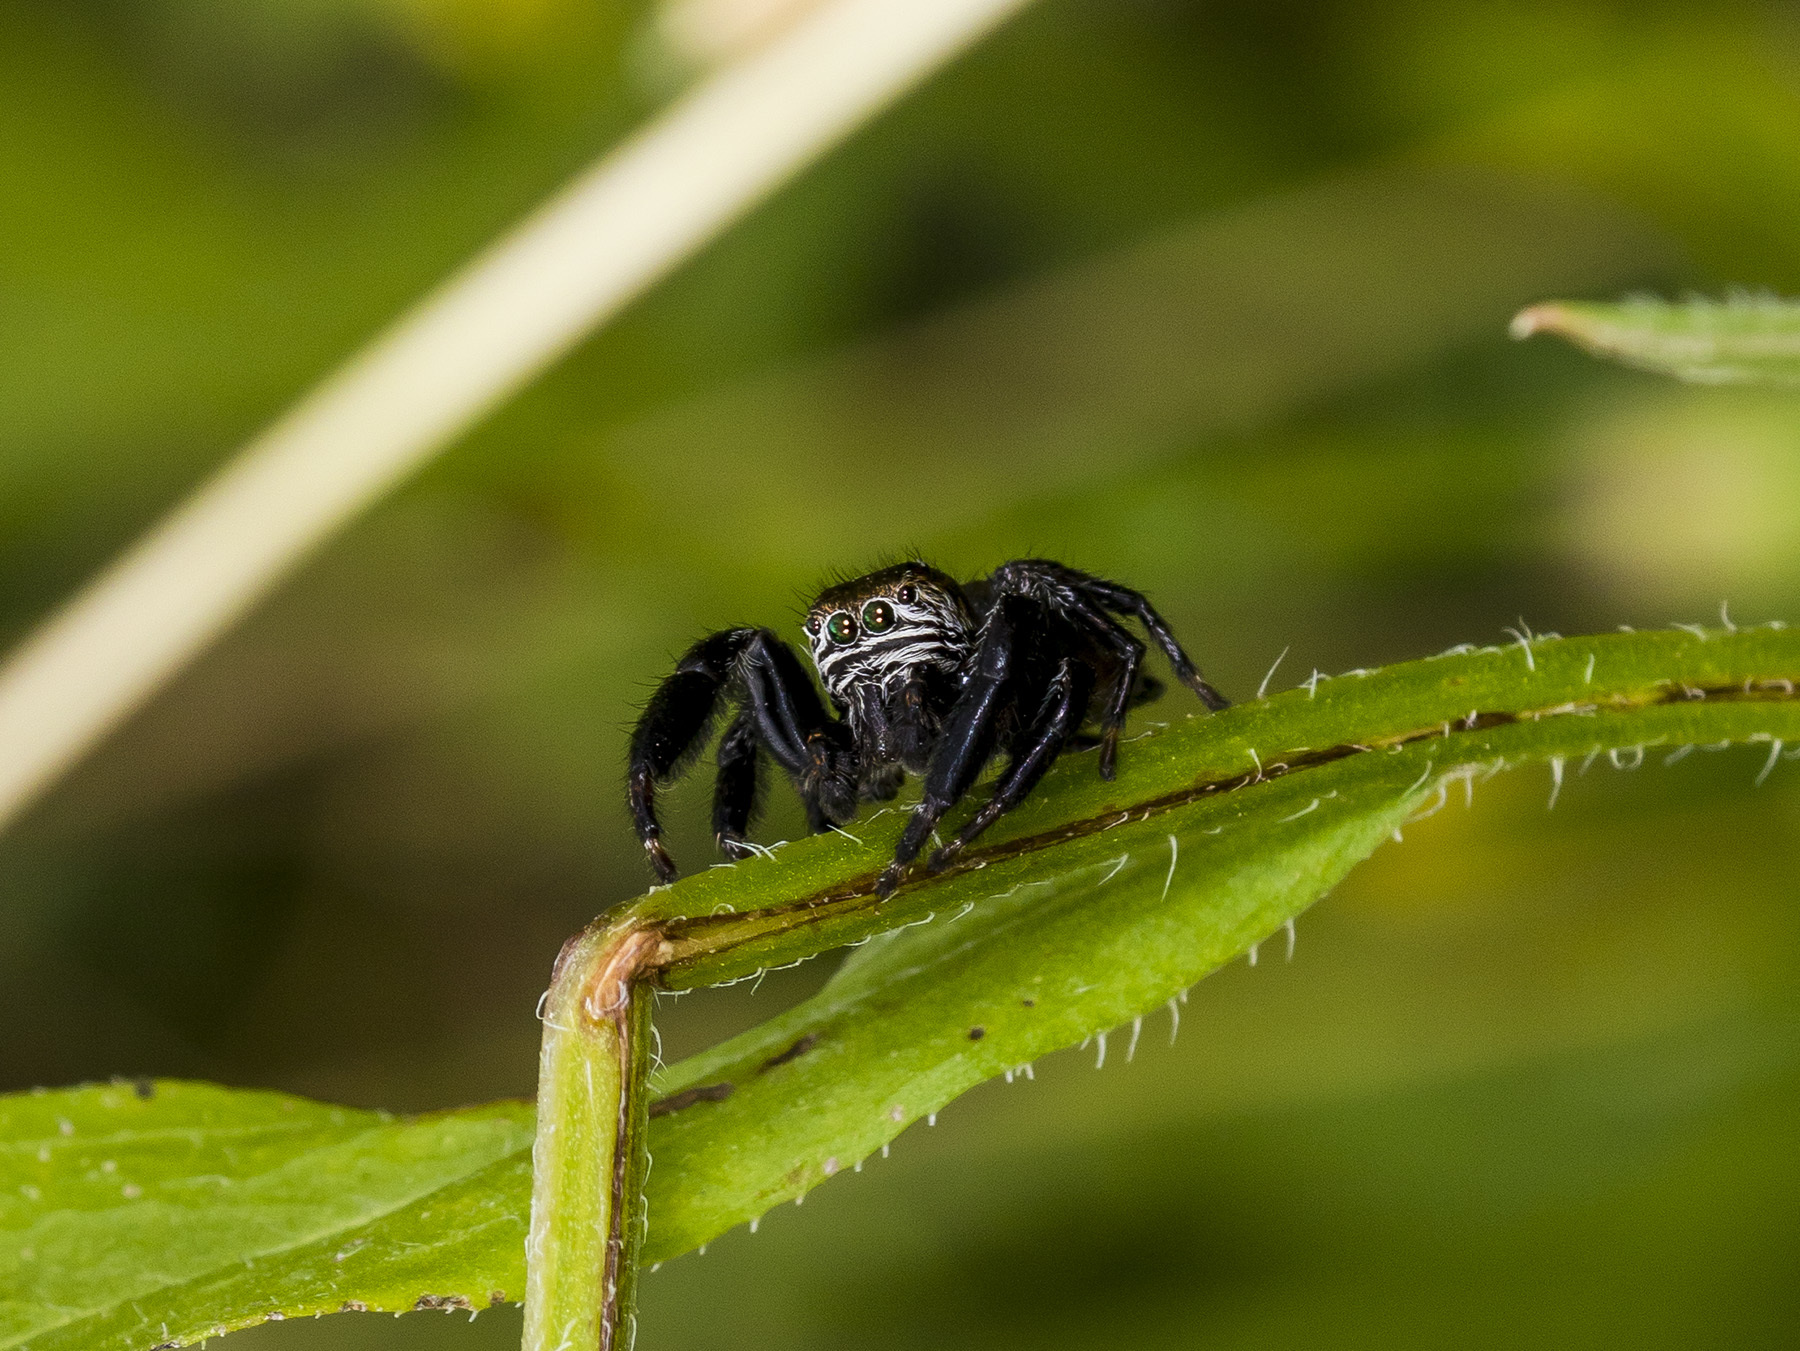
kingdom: Animalia
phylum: Arthropoda
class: Arachnida
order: Araneae
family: Salticidae
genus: Evarcha
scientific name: Evarcha arcuata
